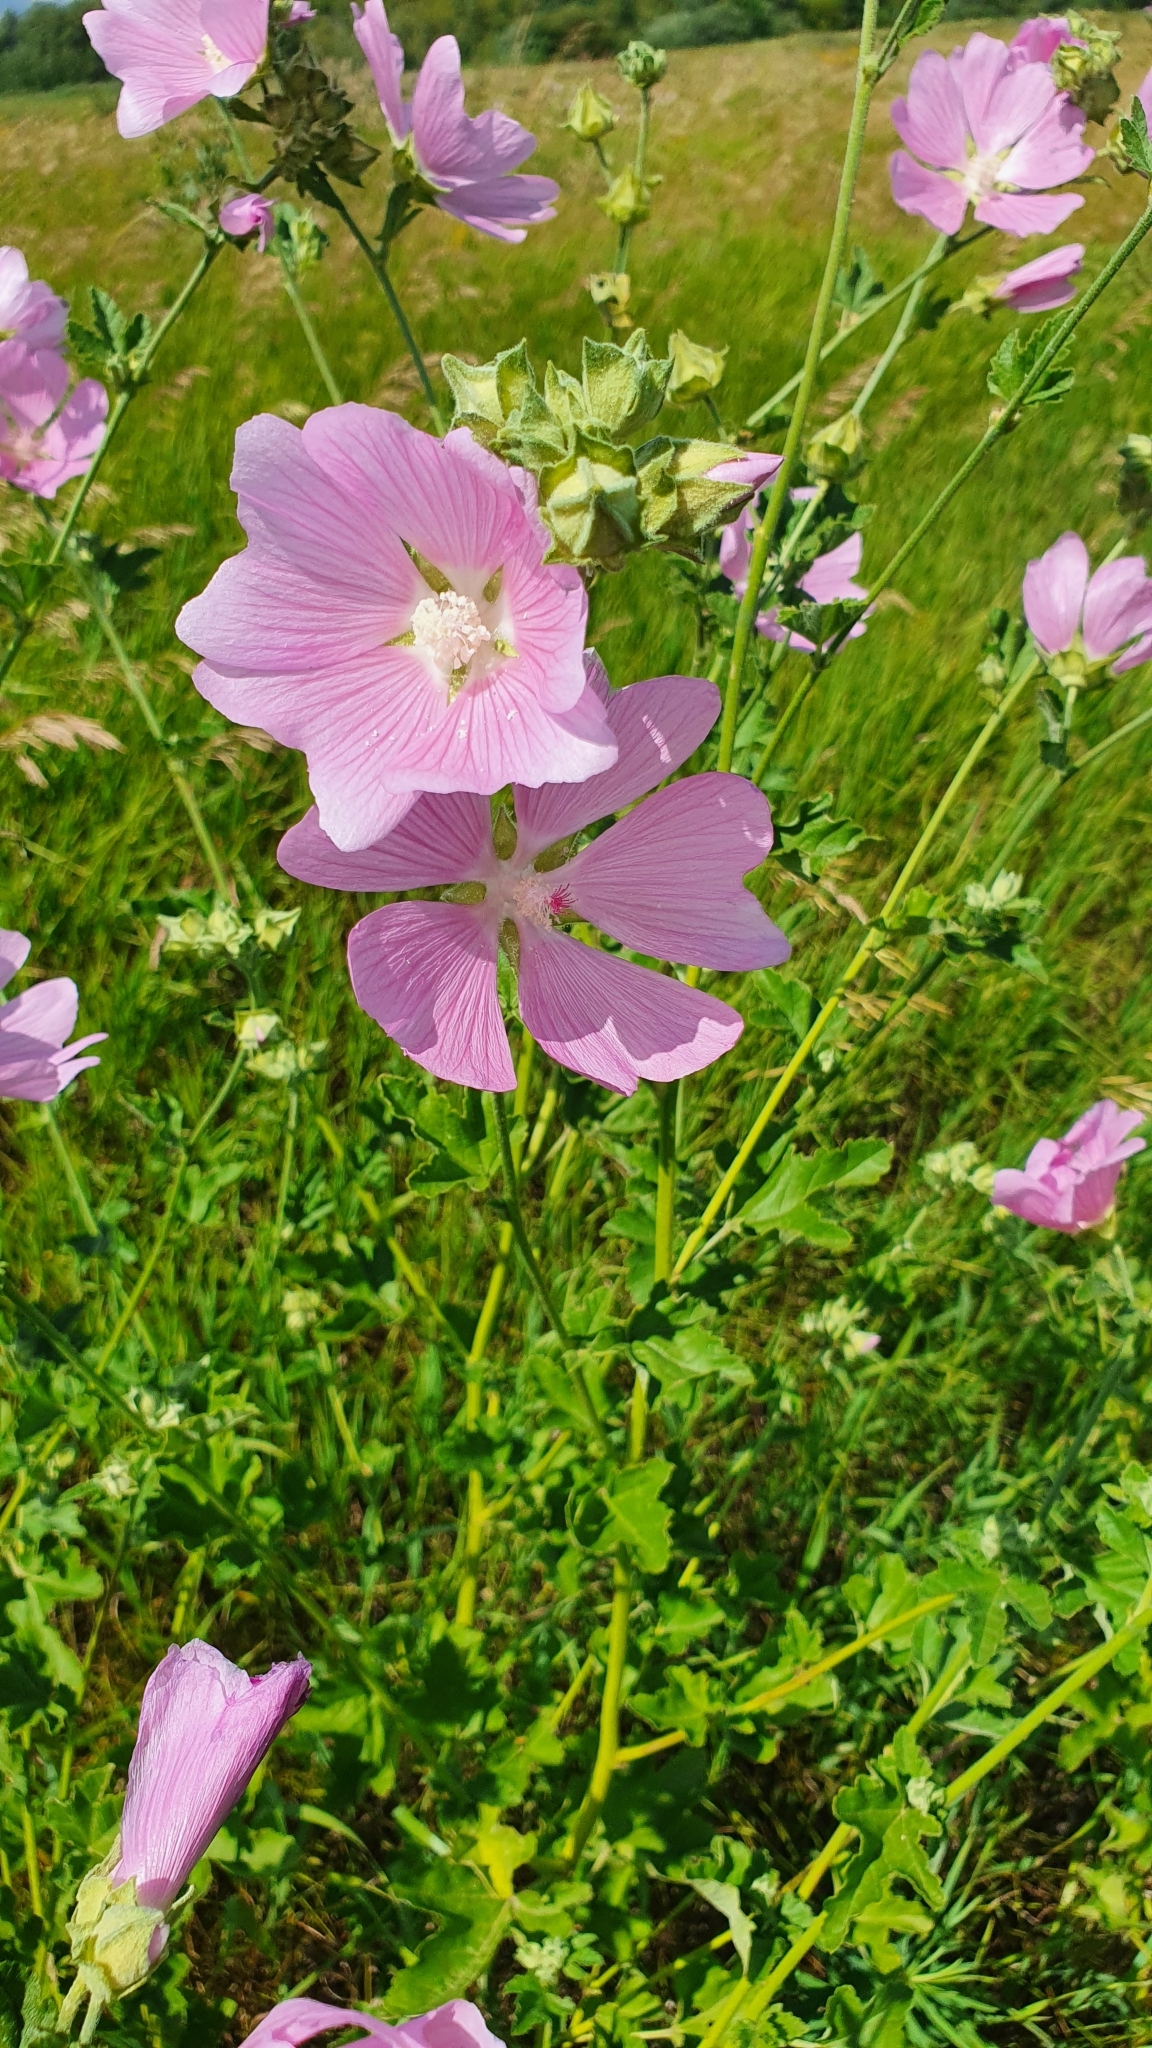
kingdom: Plantae
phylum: Tracheophyta
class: Magnoliopsida
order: Malvales
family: Malvaceae
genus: Malva
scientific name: Malva thuringiaca
